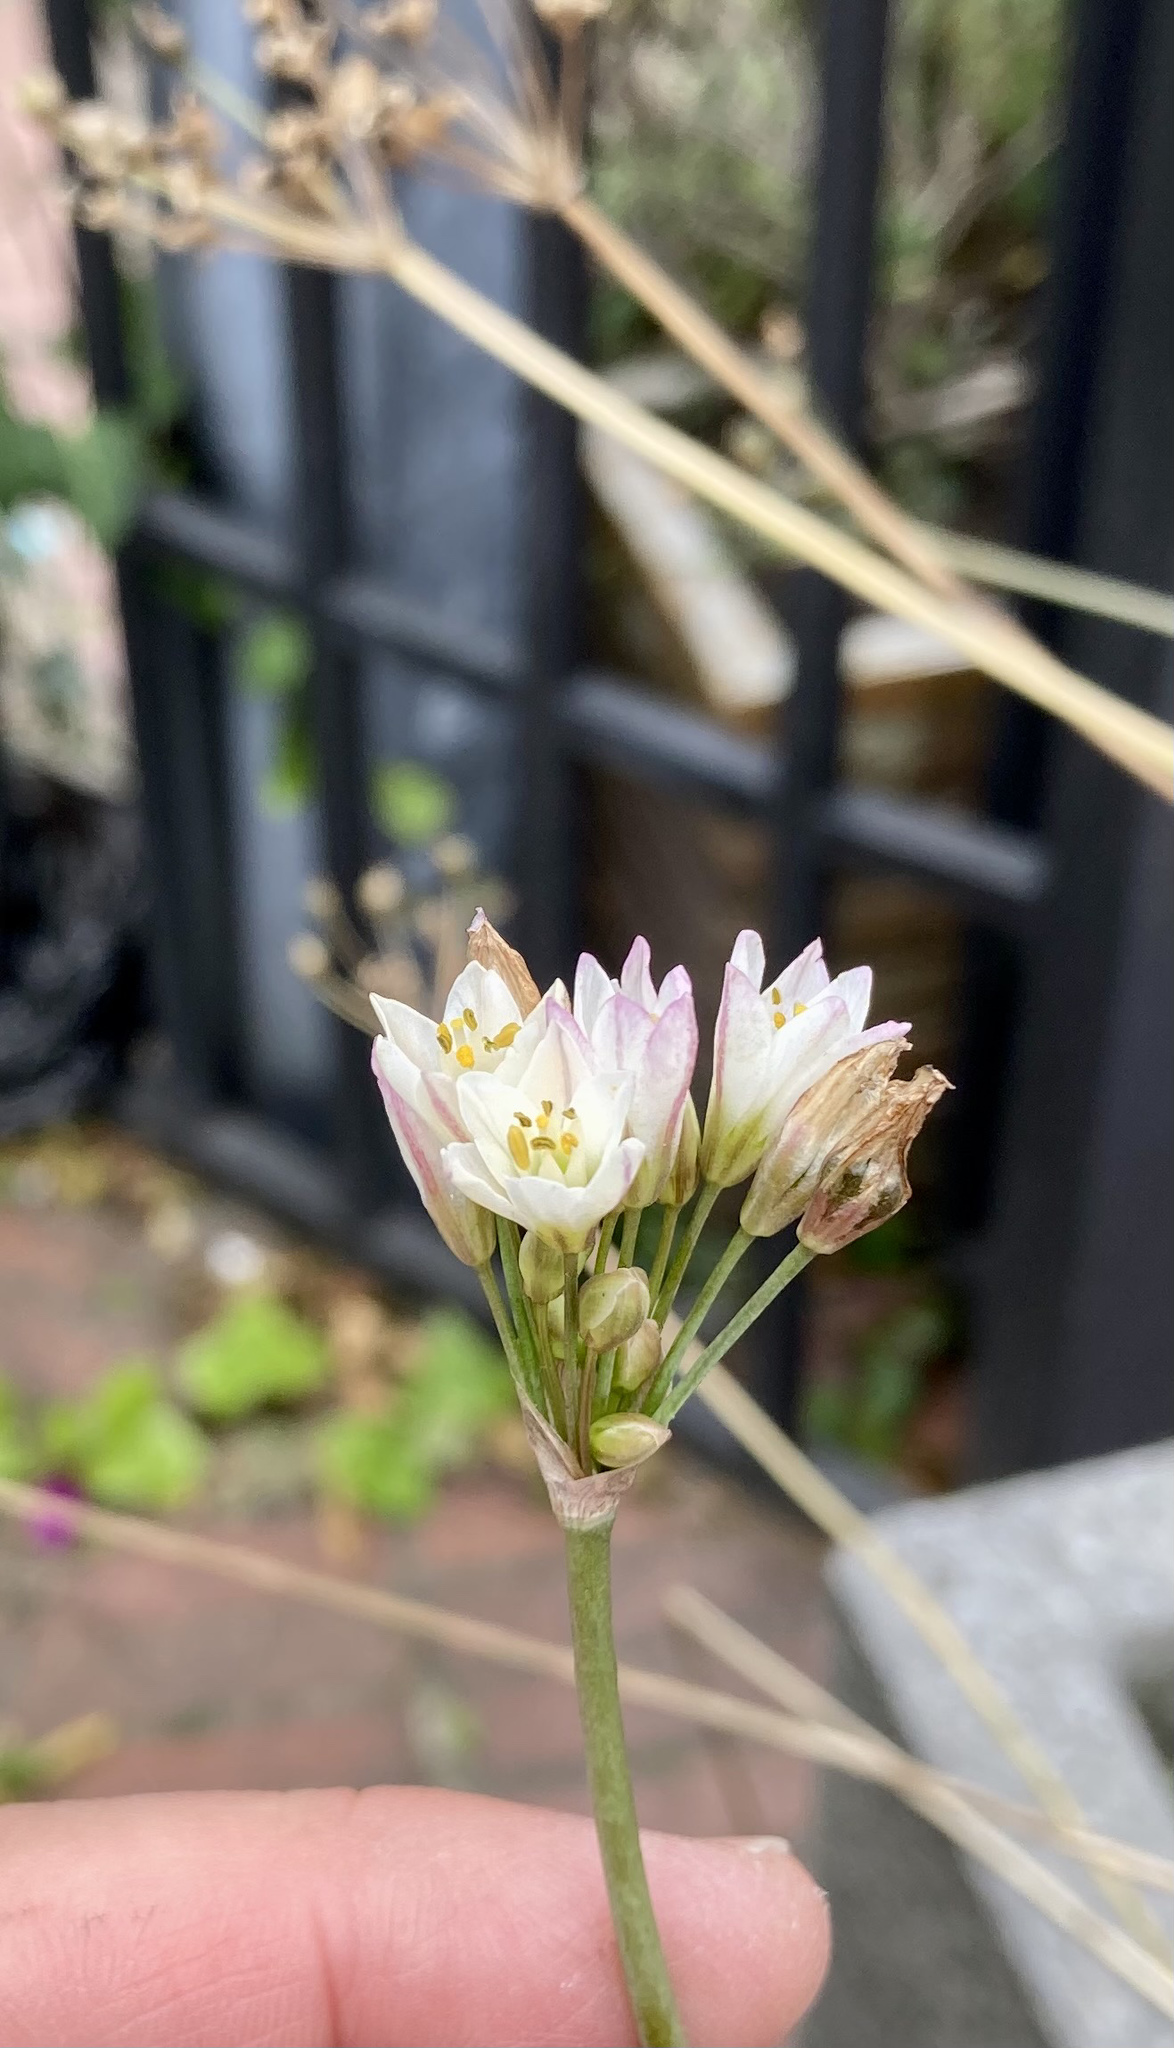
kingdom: Plantae
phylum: Tracheophyta
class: Liliopsida
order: Asparagales
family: Amaryllidaceae
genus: Nothoscordum
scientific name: Nothoscordum gracile
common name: Slender false garlic
